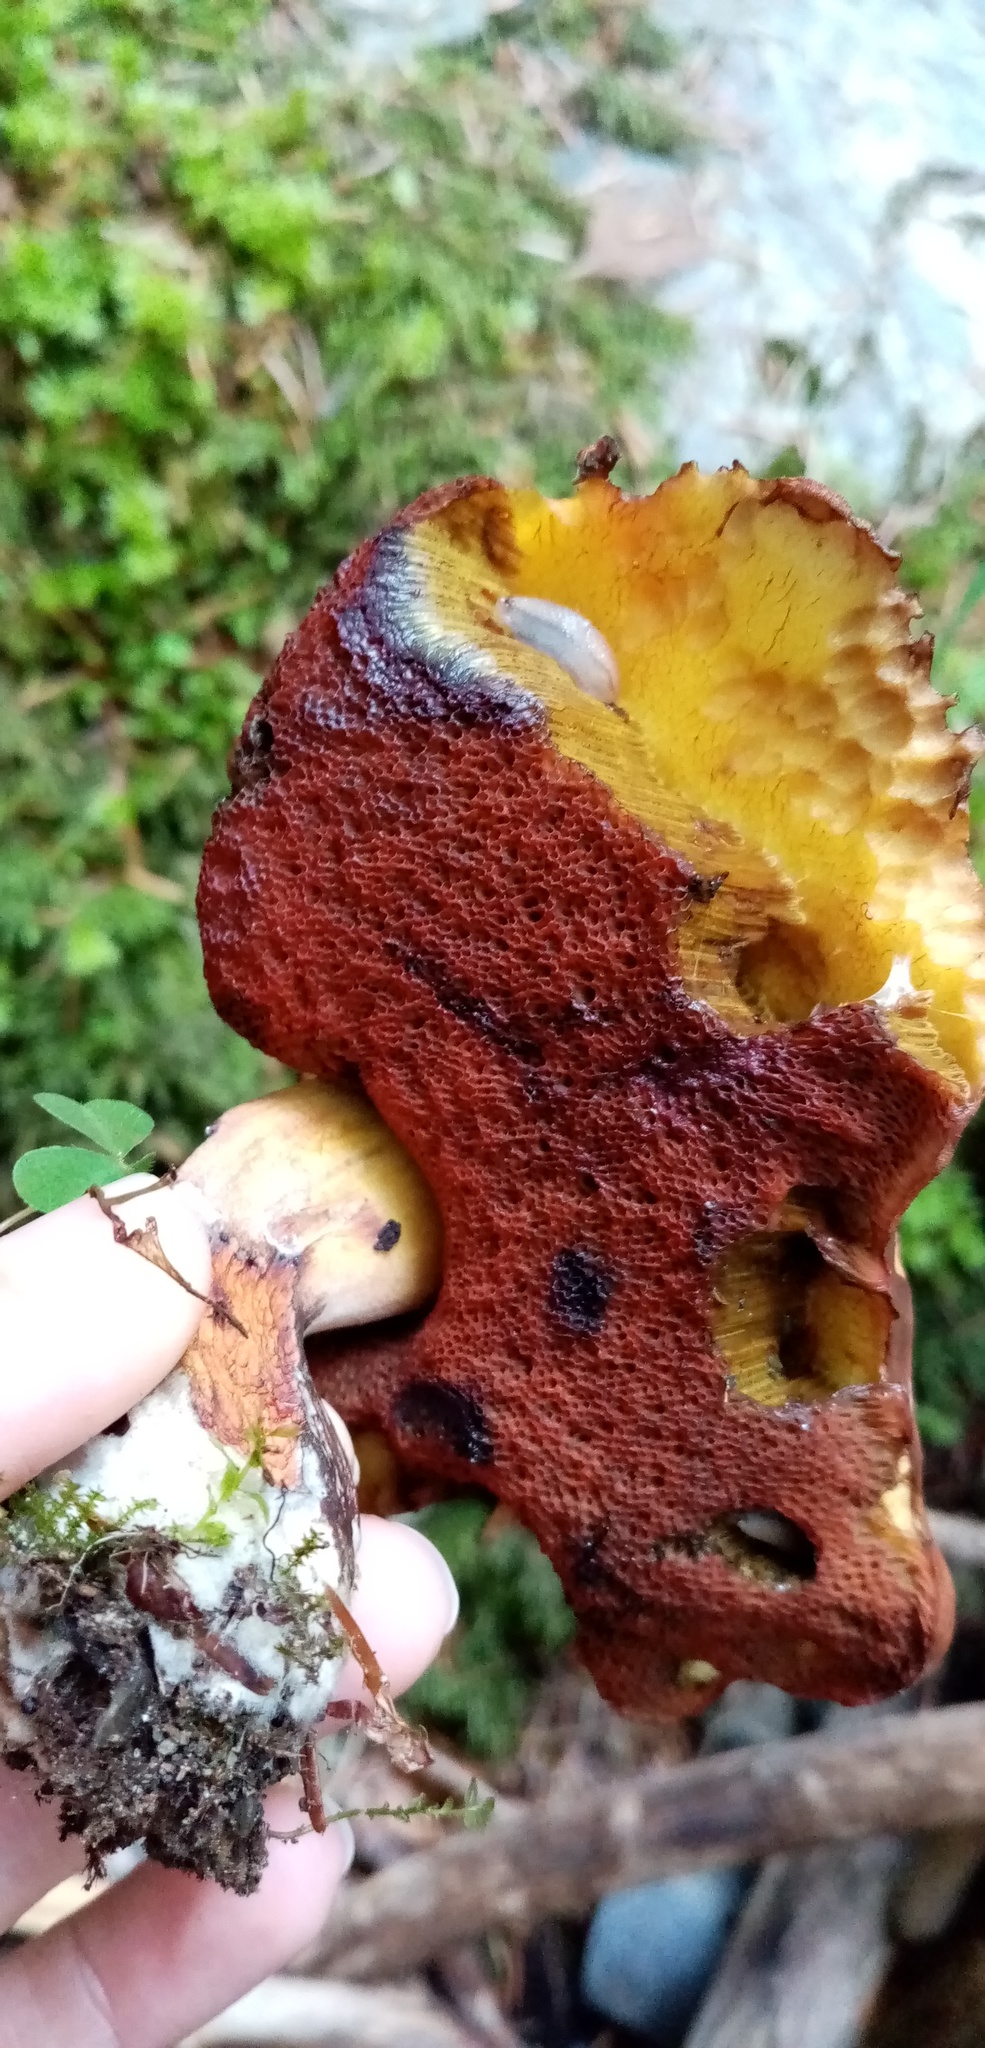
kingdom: Fungi
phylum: Basidiomycota
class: Agaricomycetes
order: Boletales
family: Boletaceae
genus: Neoboletus
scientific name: Neoboletus luridiformis
